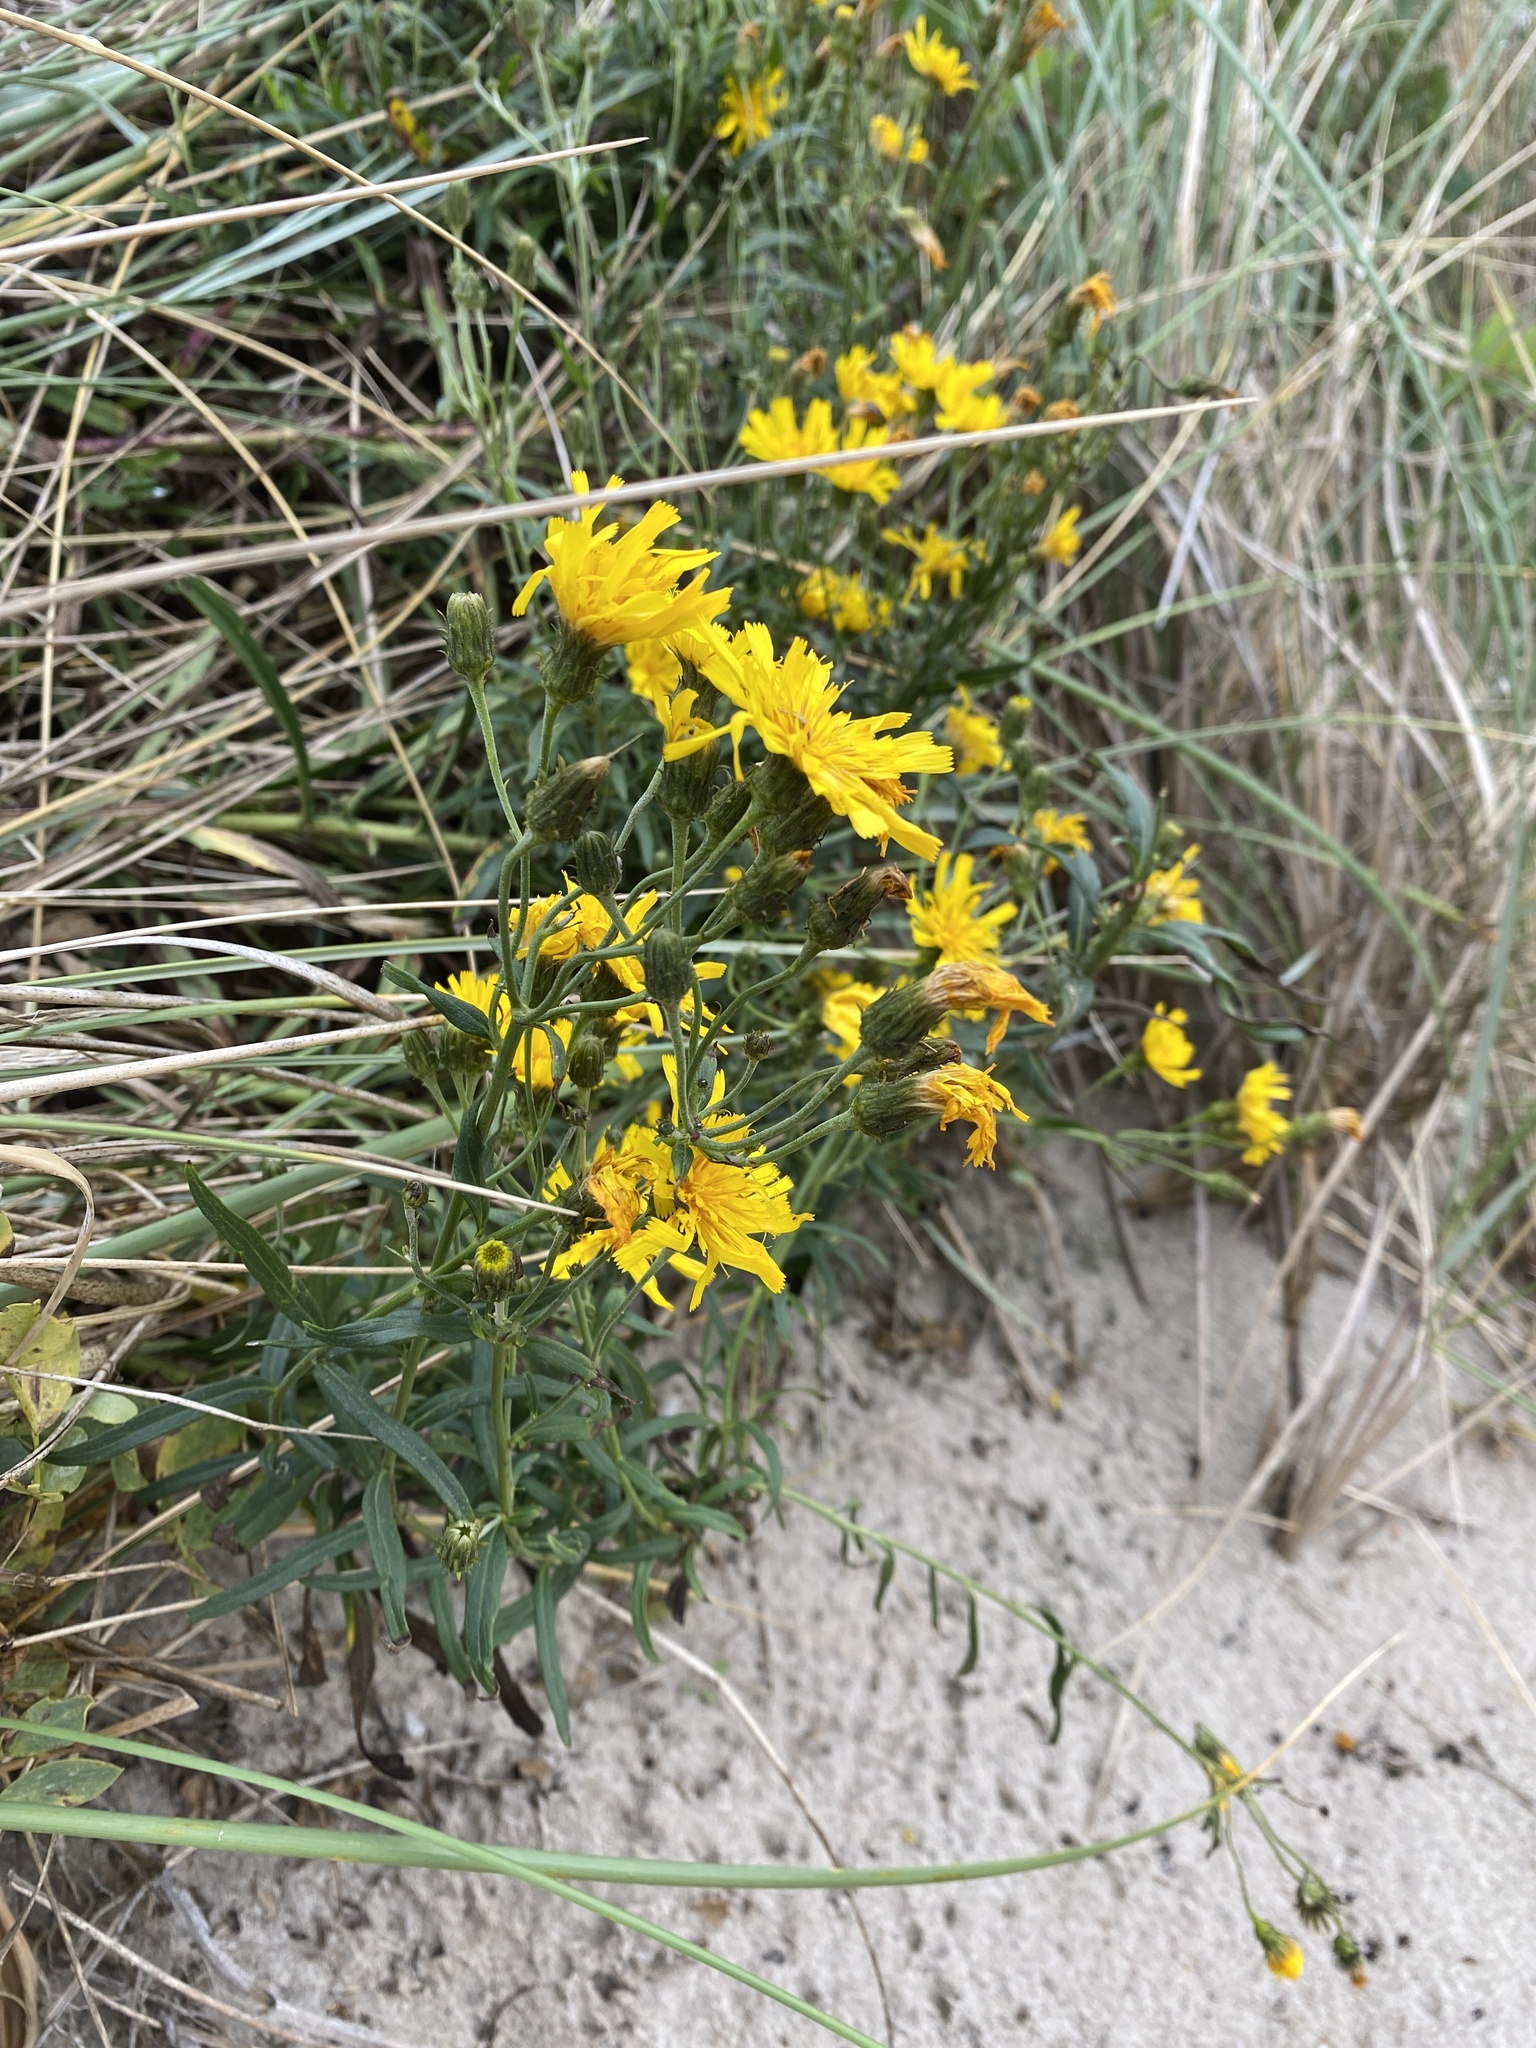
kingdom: Plantae
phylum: Tracheophyta
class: Magnoliopsida
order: Asterales
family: Asteraceae
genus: Hieracium
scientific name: Hieracium umbellatum
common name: Northern hawkweed
